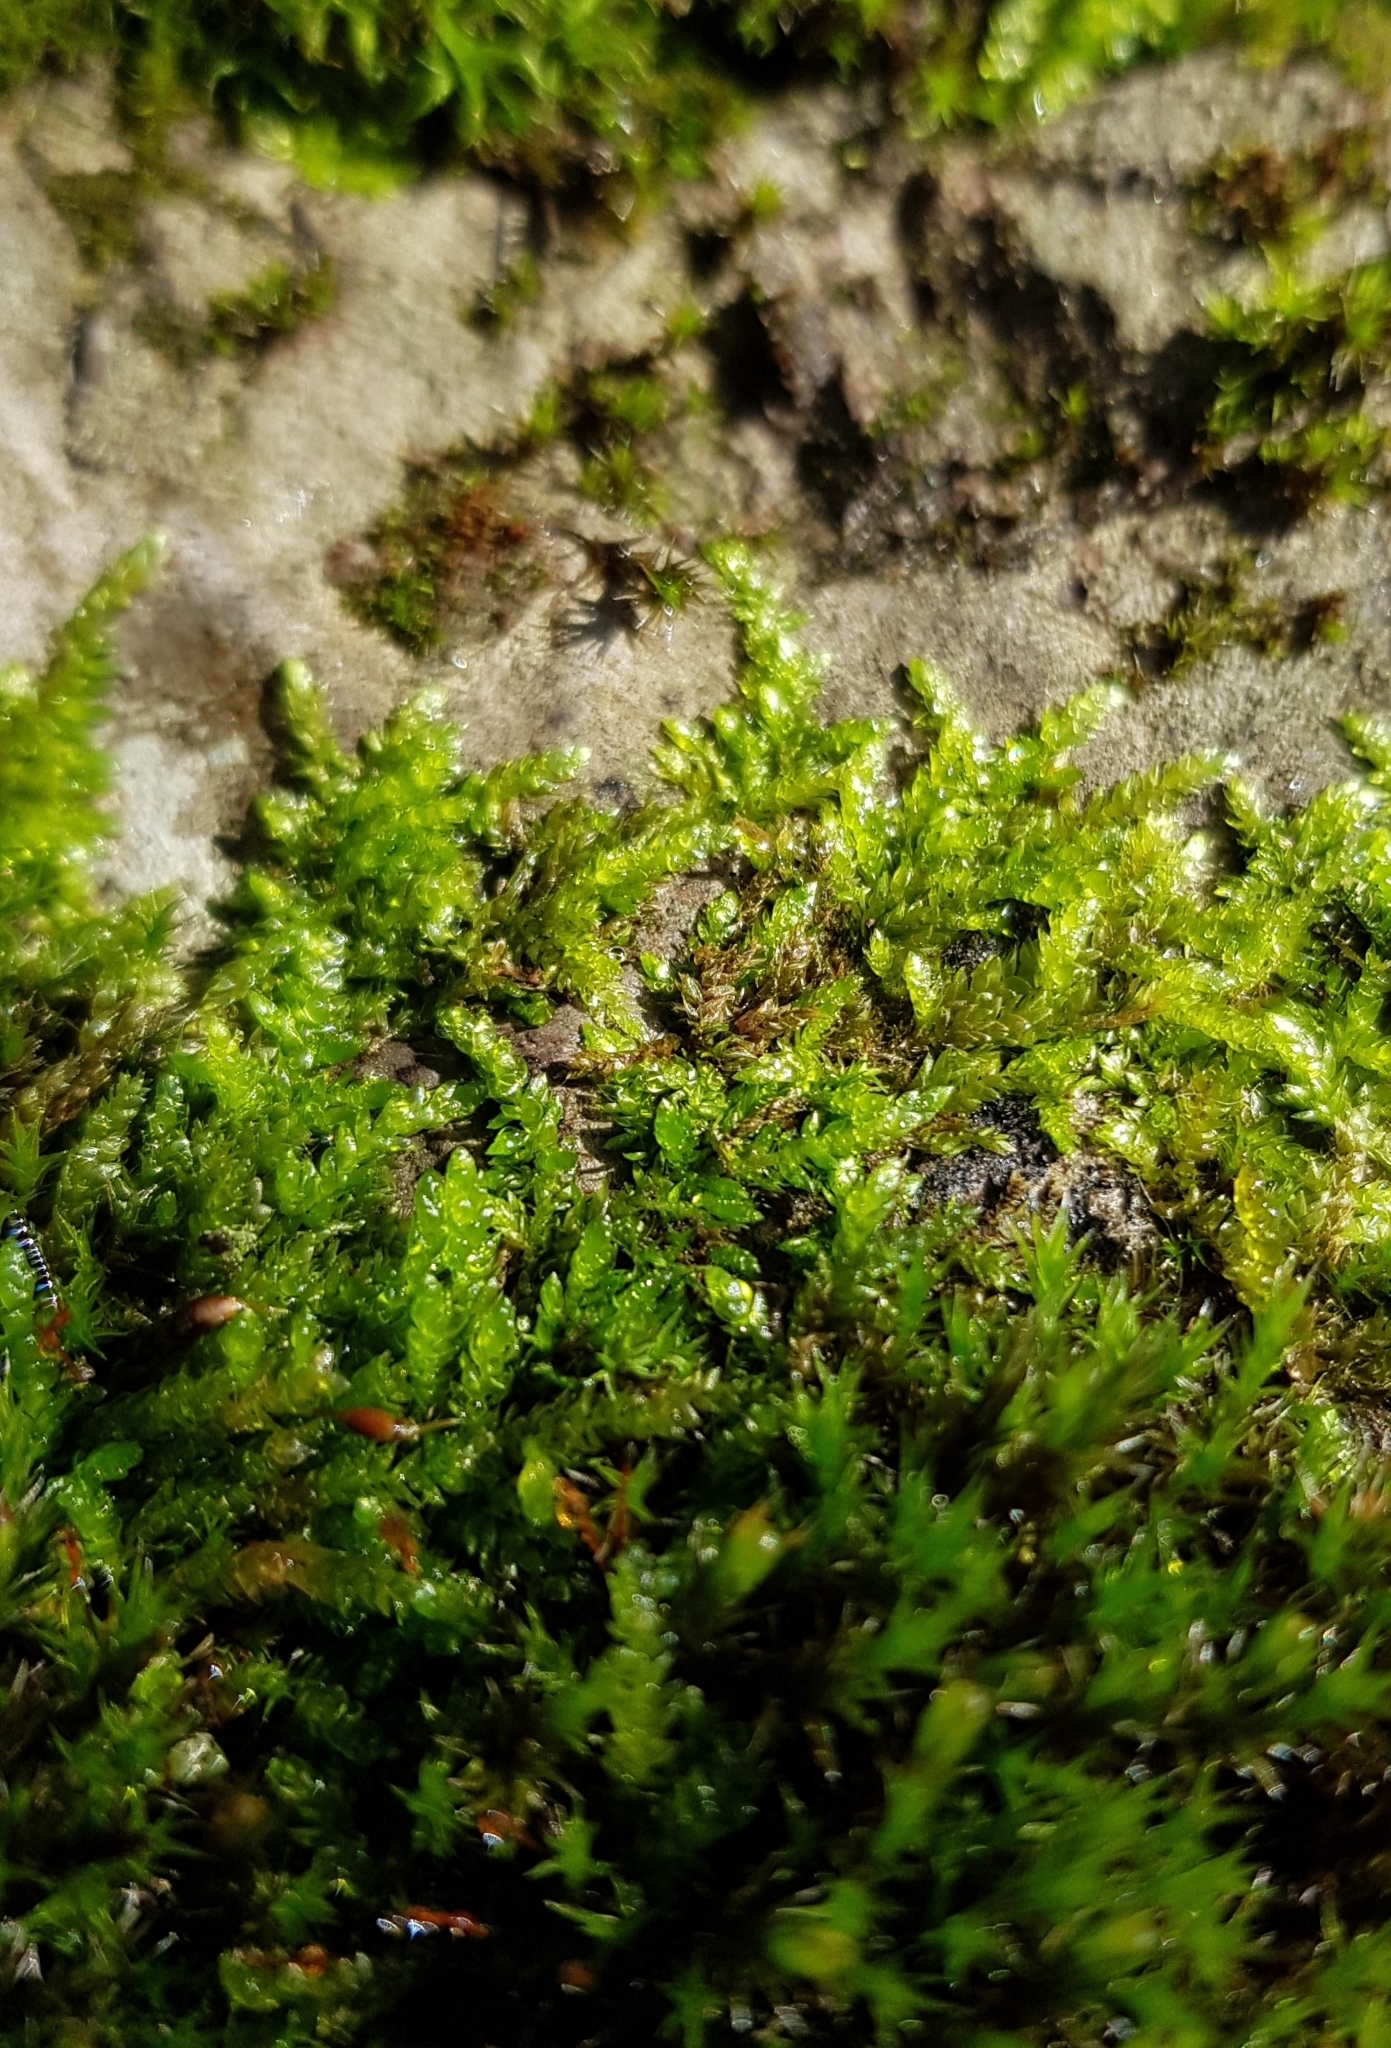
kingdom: Plantae
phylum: Bryophyta
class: Bryopsida
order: Hypnales
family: Brachytheciaceae
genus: Rhynchostegium
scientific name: Rhynchostegium murale
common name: Wall feather-moss
